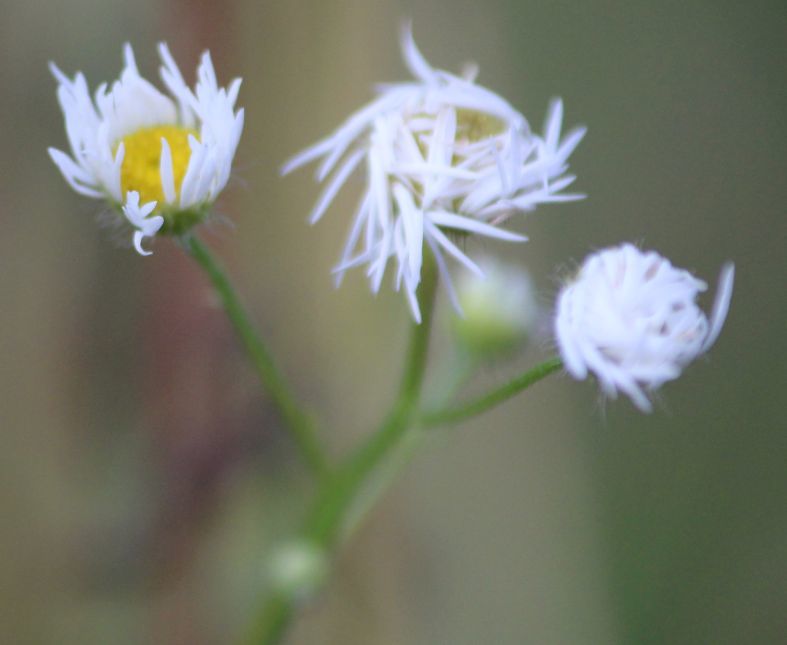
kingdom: Plantae
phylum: Tracheophyta
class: Magnoliopsida
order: Asterales
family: Asteraceae
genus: Erigeron
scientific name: Erigeron annuus
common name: Tall fleabane
